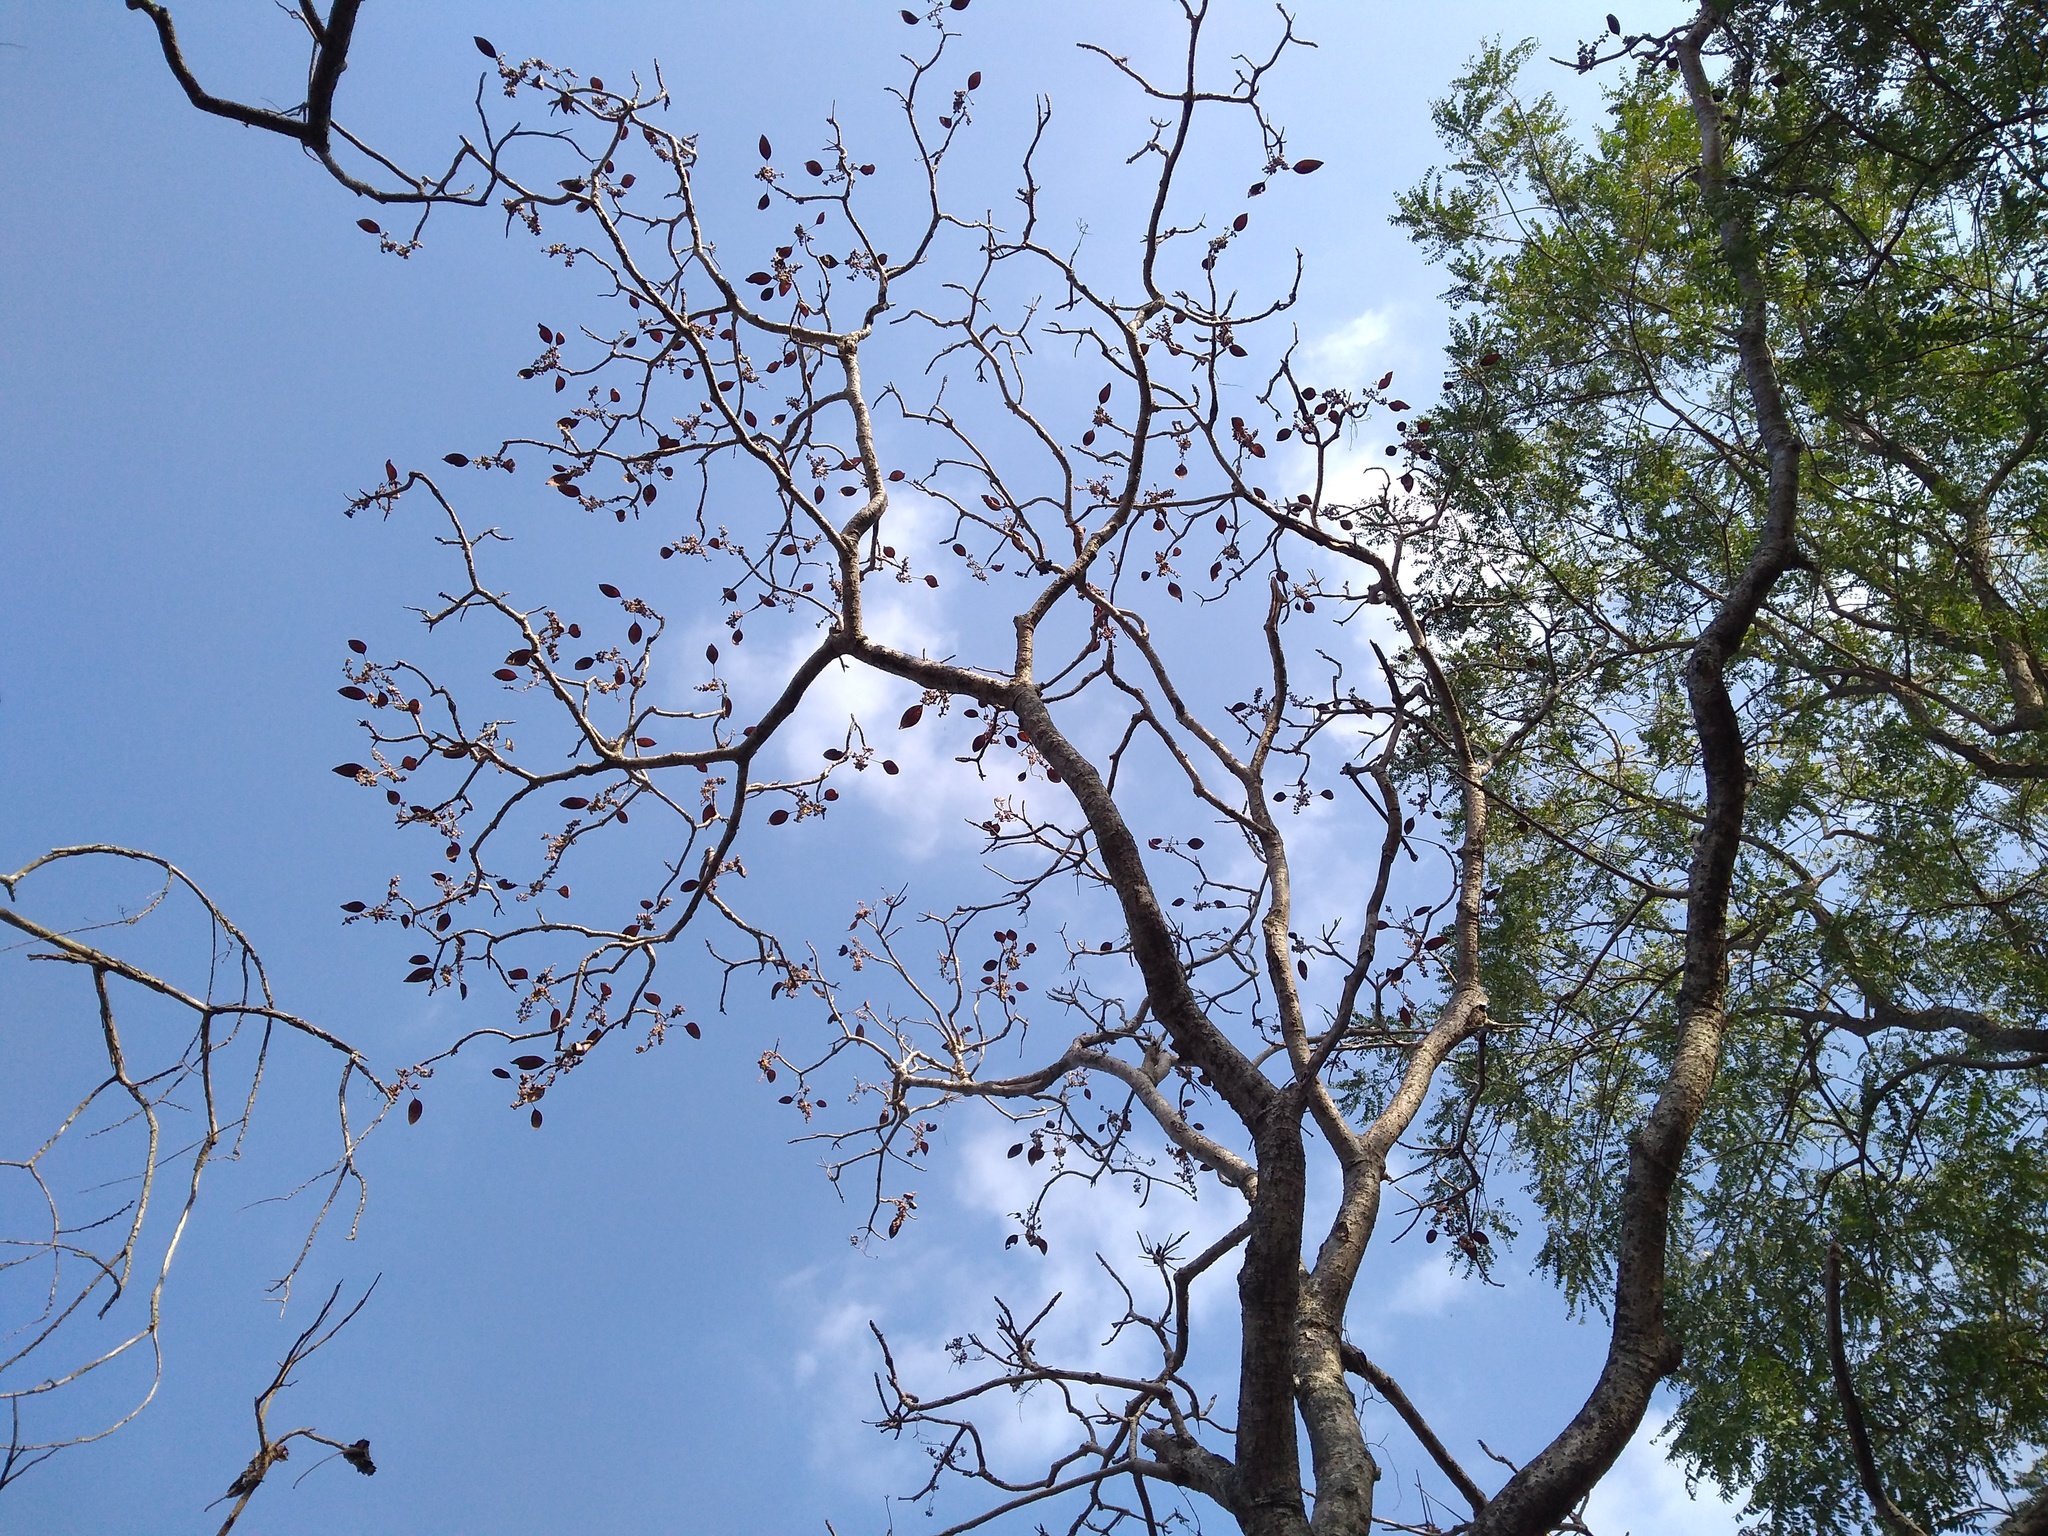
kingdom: Plantae
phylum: Tracheophyta
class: Magnoliopsida
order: Gentianales
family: Rubiaceae
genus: Hymenodictyon
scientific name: Hymenodictyon orixense
